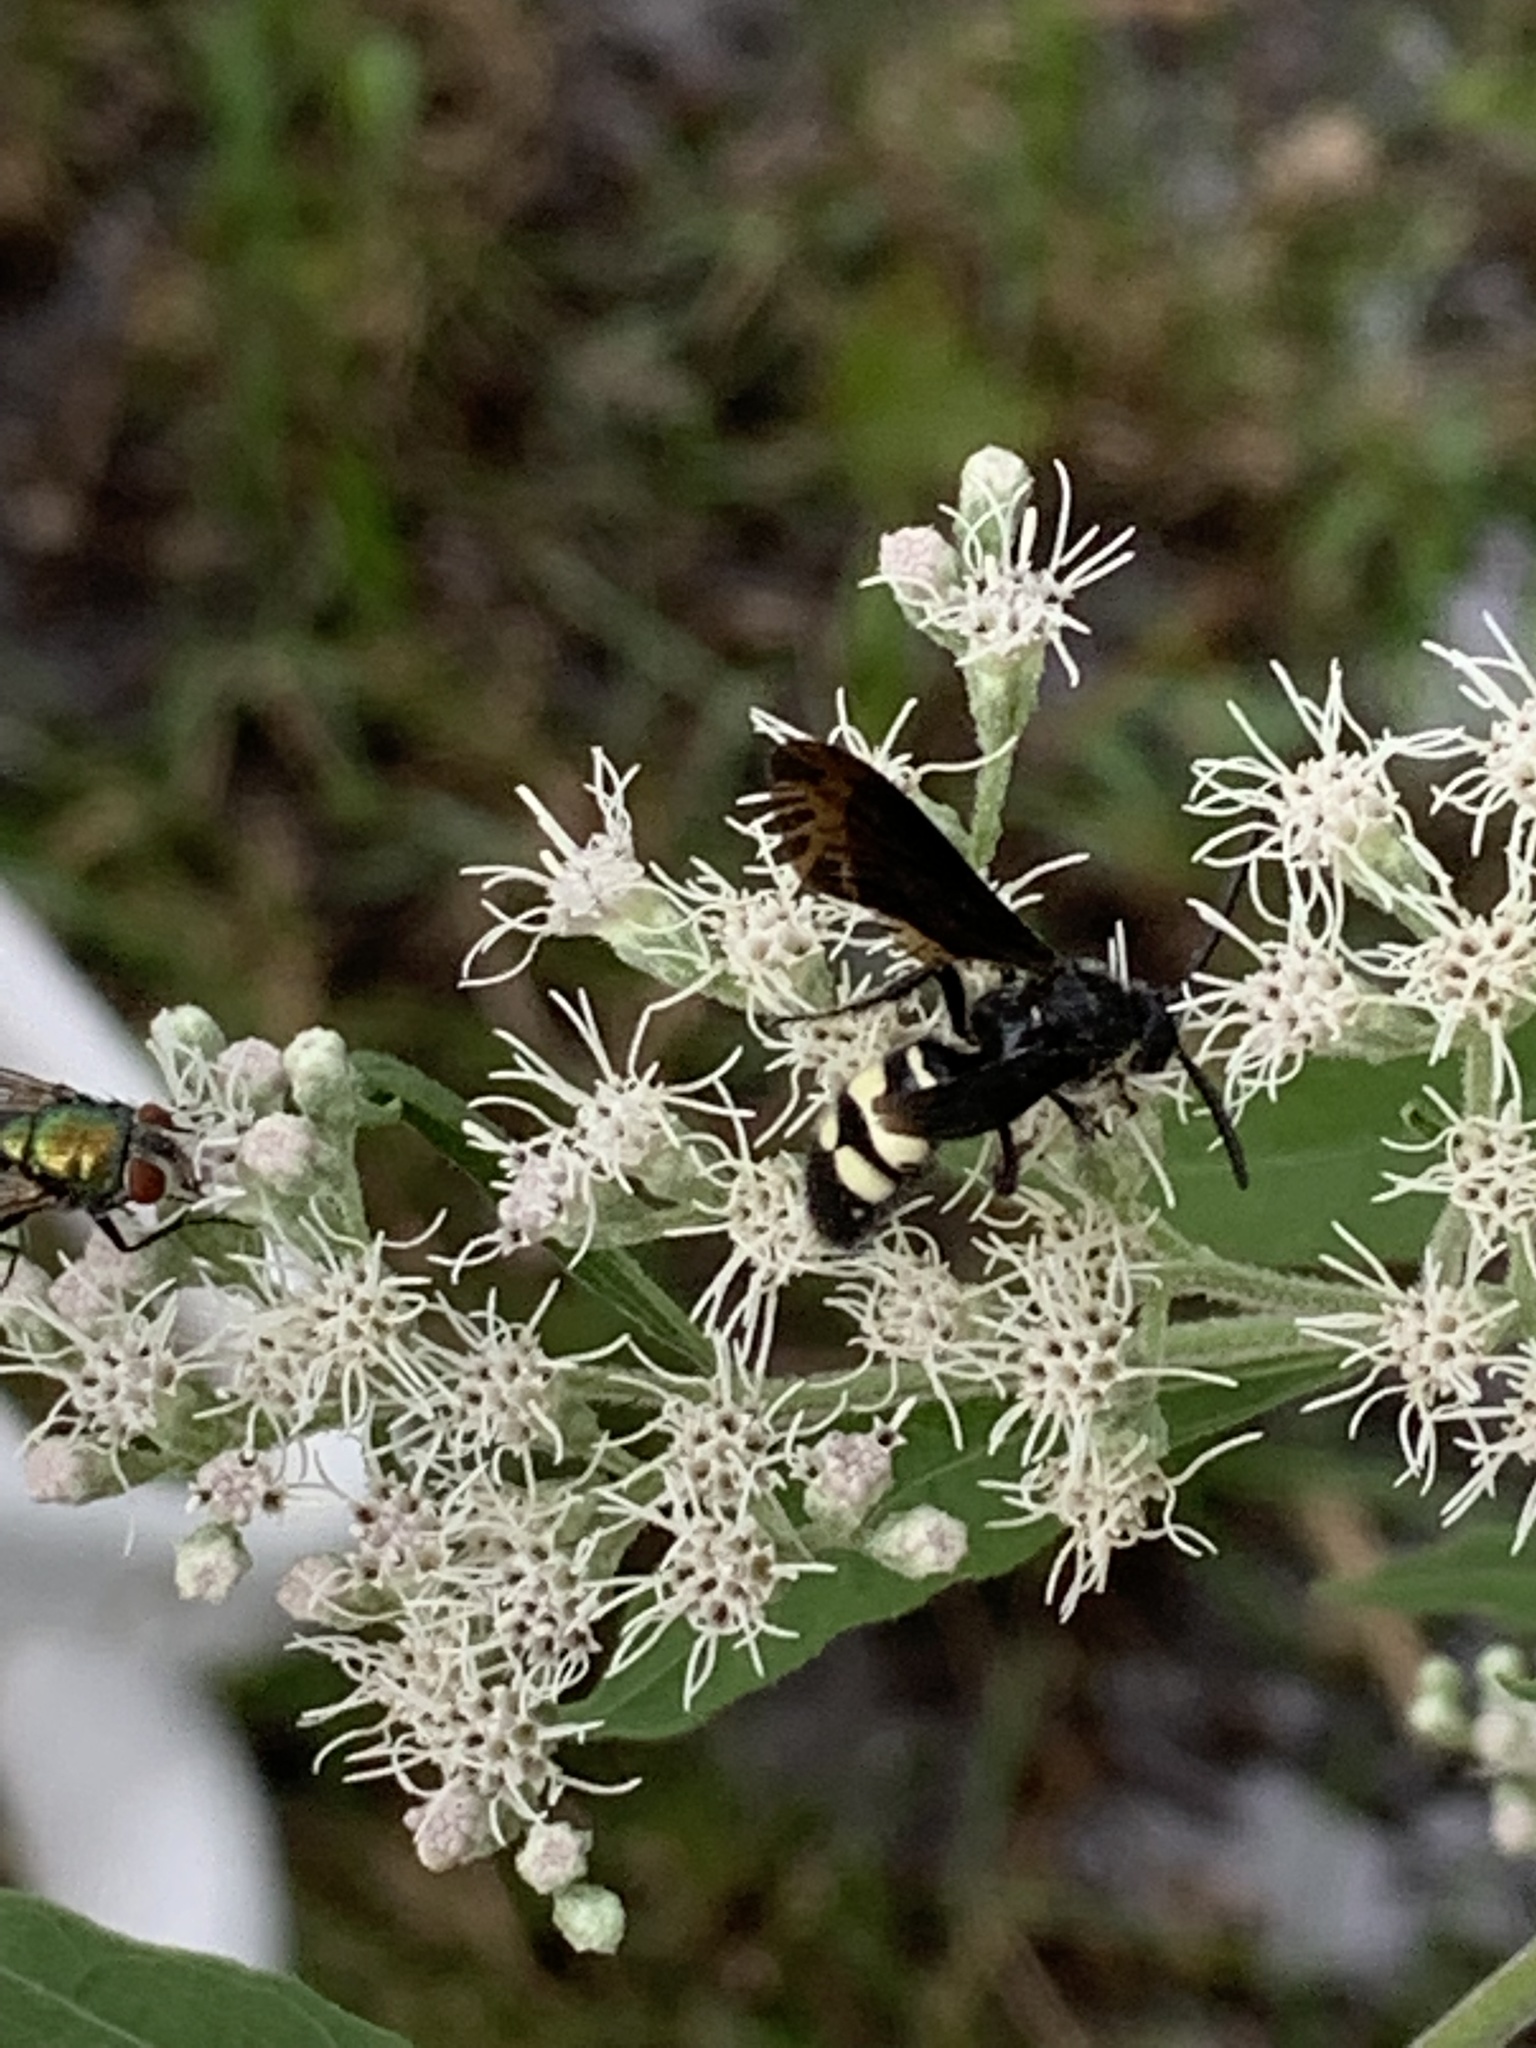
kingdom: Animalia
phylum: Arthropoda
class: Insecta
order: Hymenoptera
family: Scoliidae
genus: Scolia
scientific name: Scolia bicincta
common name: Double-banded scoliid wasp
